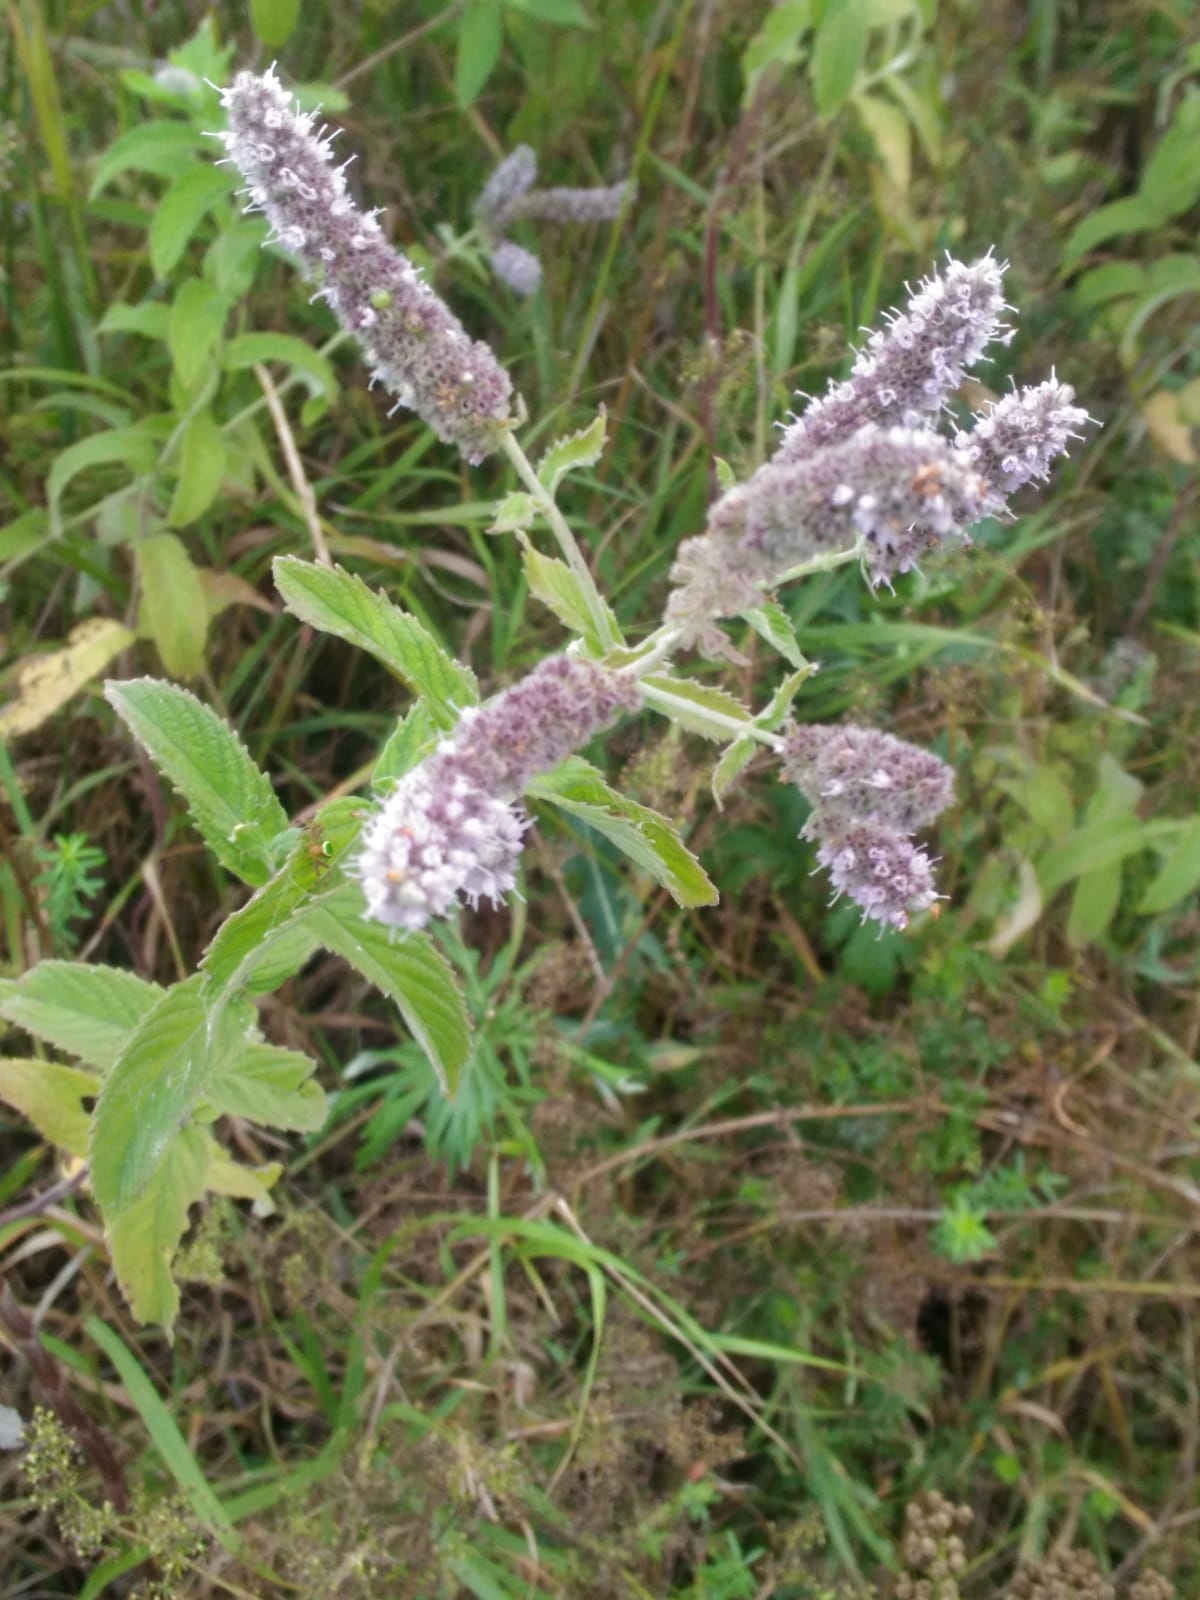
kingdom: Plantae
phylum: Tracheophyta
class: Magnoliopsida
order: Lamiales
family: Lamiaceae
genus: Mentha
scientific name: Mentha longifolia
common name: Horse mint
